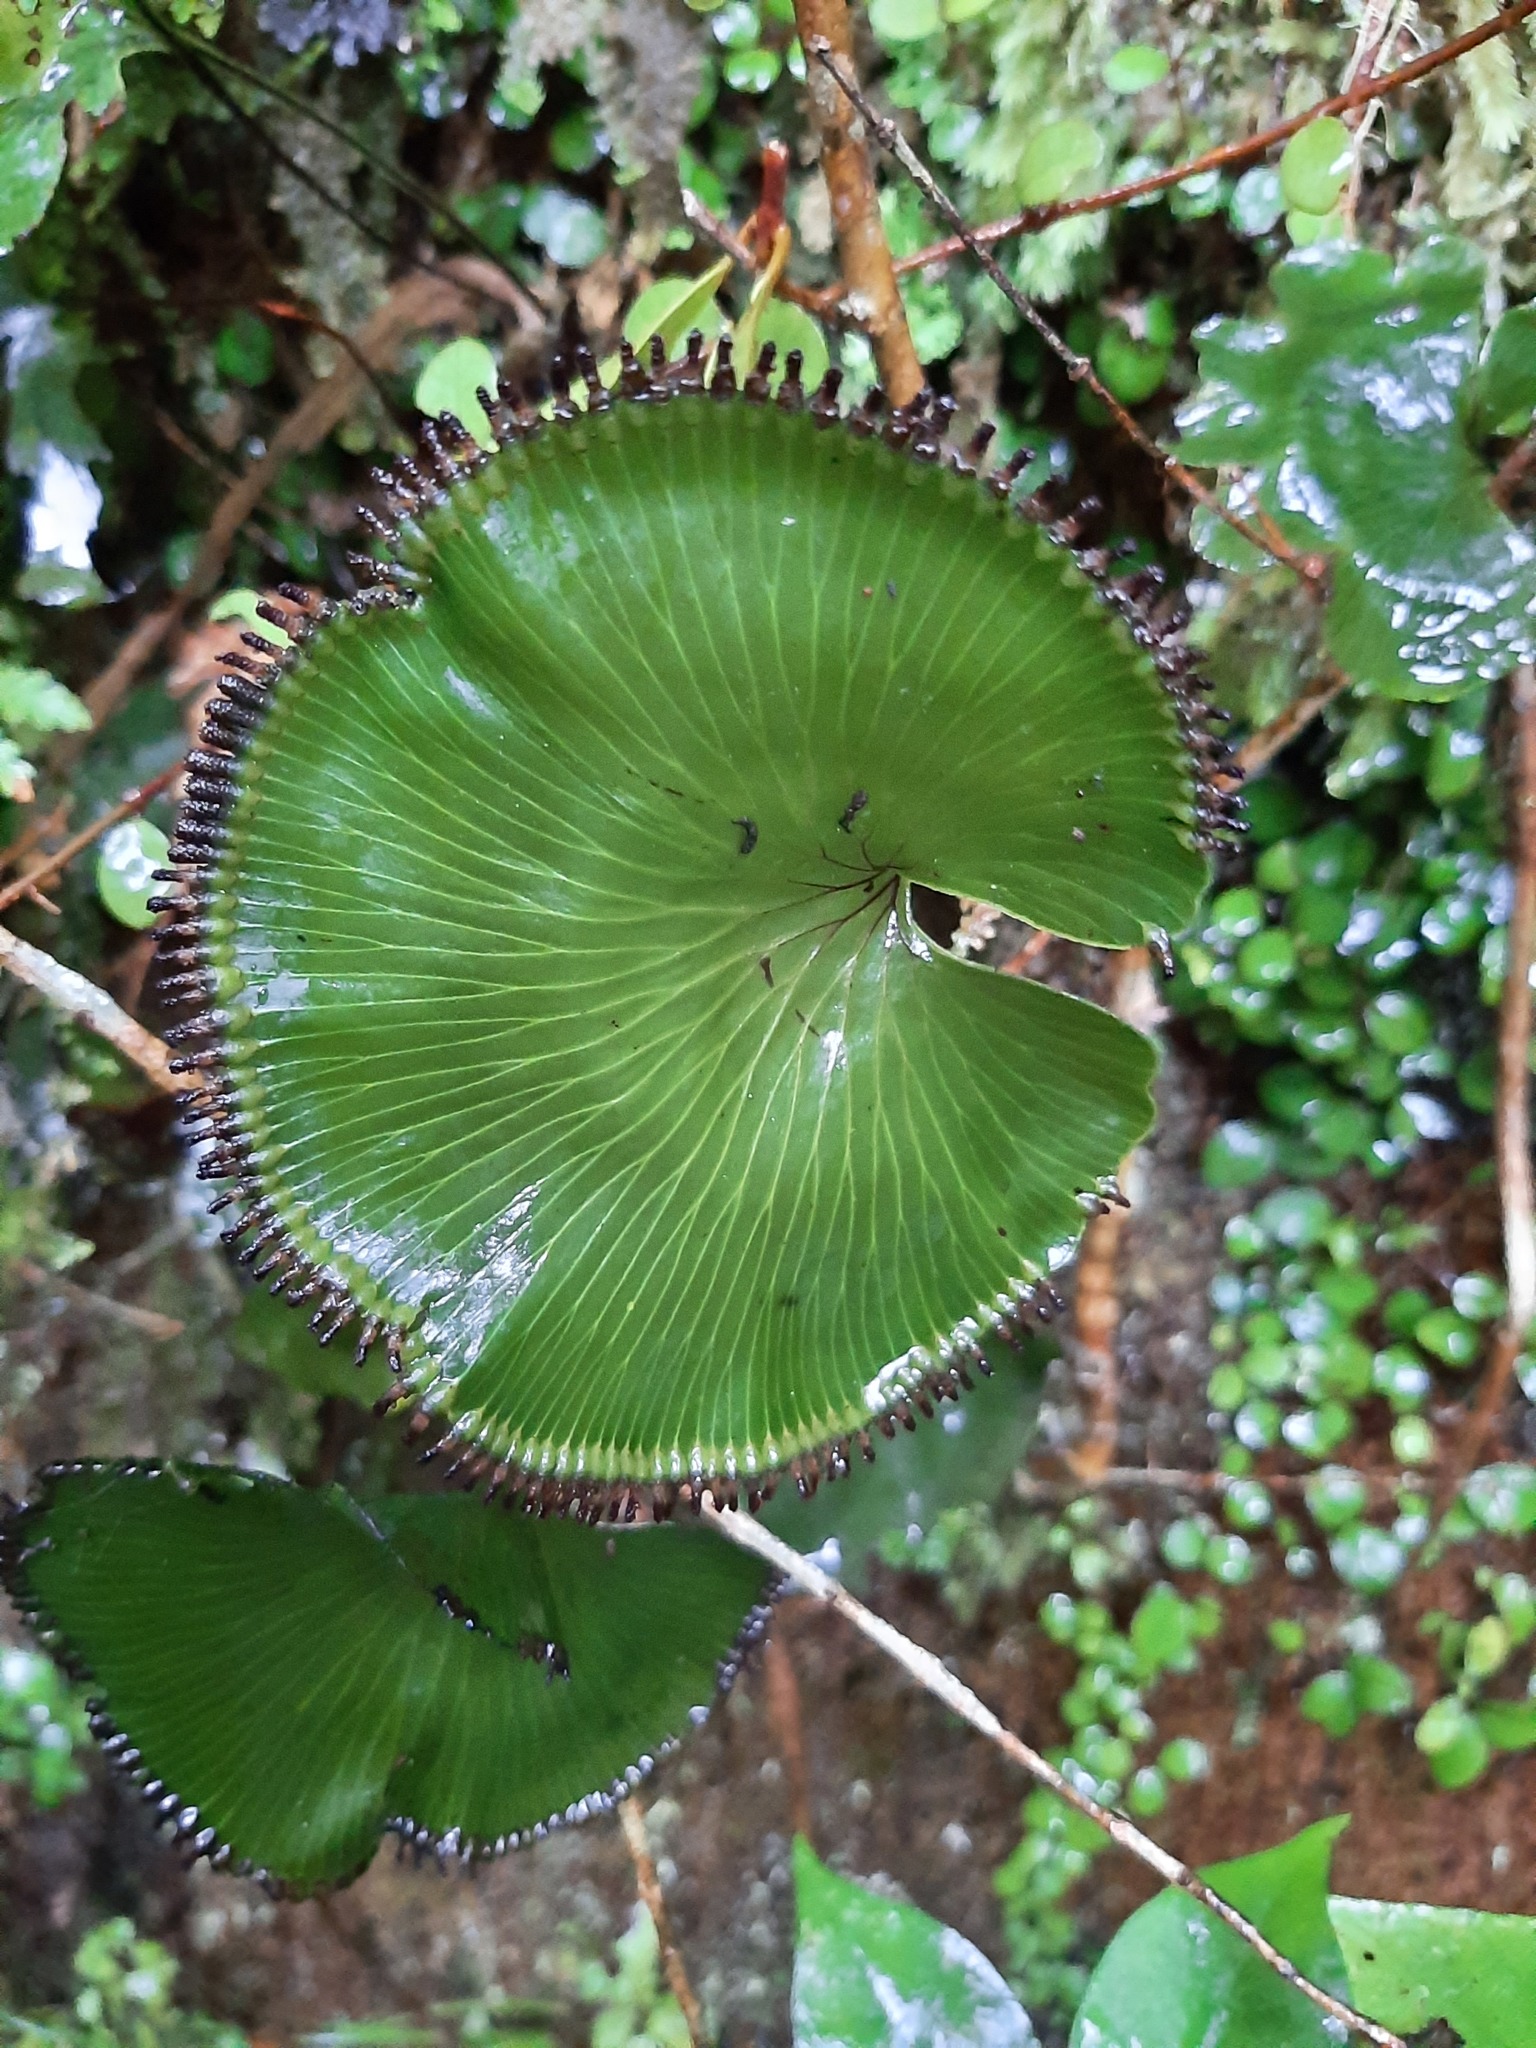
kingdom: Plantae
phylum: Tracheophyta
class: Polypodiopsida
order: Hymenophyllales
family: Hymenophyllaceae
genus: Hymenophyllum
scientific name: Hymenophyllum nephrophyllum
